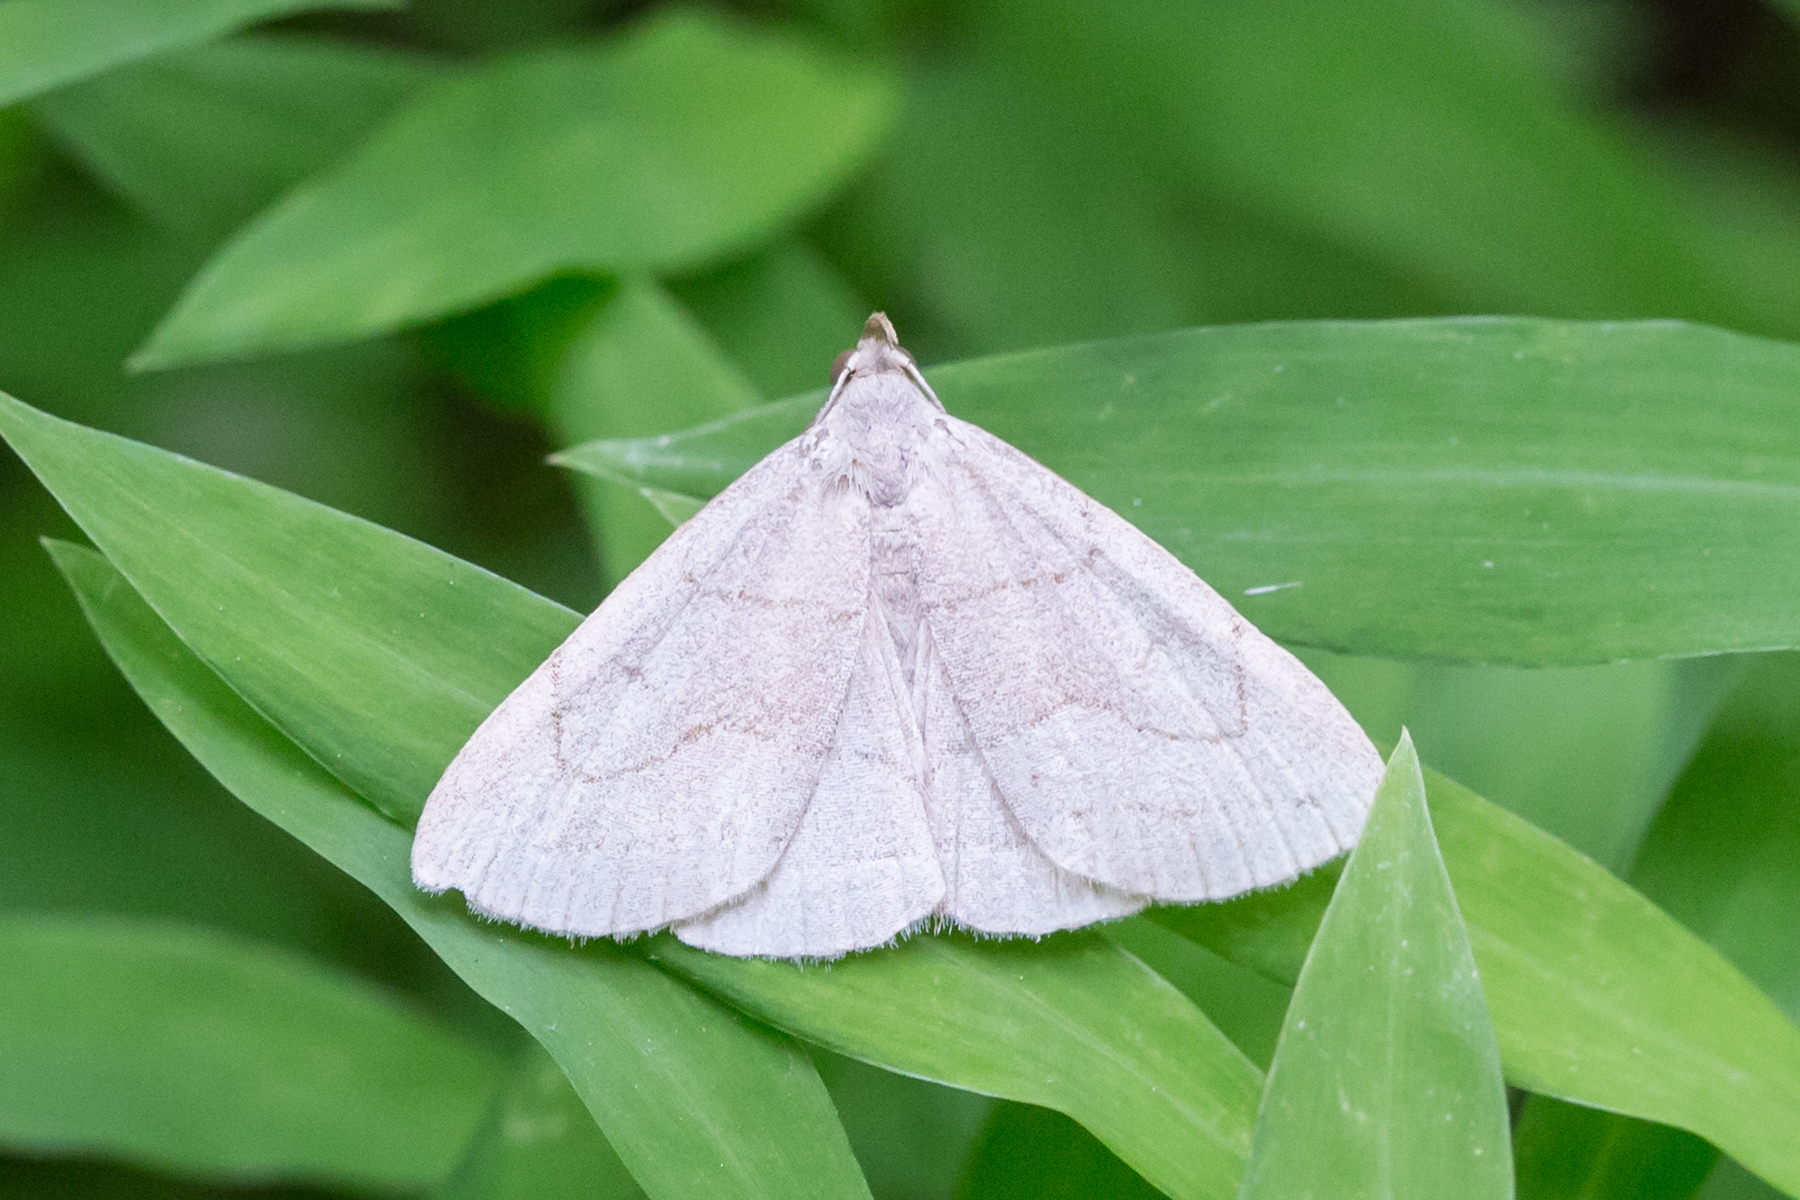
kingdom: Animalia
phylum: Arthropoda
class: Insecta
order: Lepidoptera
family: Erebidae
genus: Zanclognatha
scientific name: Zanclognatha pedipilalis
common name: Grayish fan-foot
